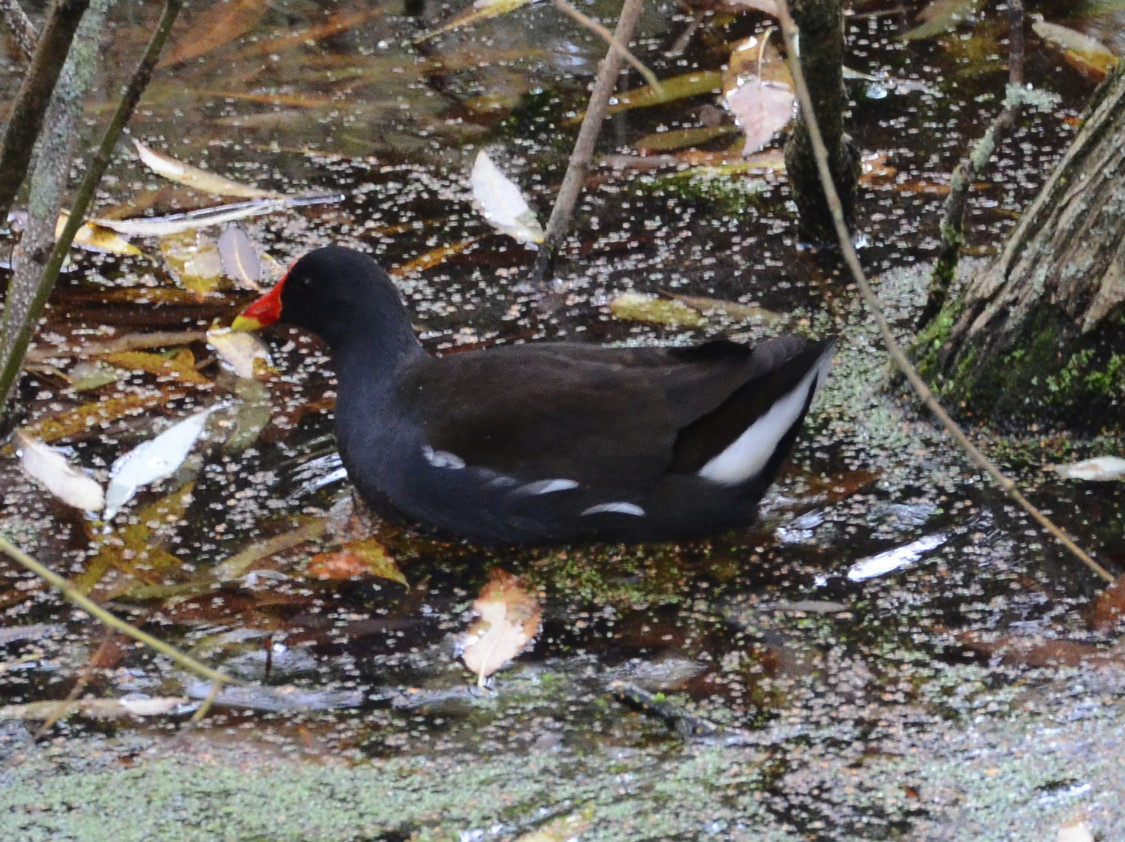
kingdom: Animalia
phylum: Chordata
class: Aves
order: Gruiformes
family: Rallidae
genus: Gallinula
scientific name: Gallinula chloropus
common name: Common moorhen
